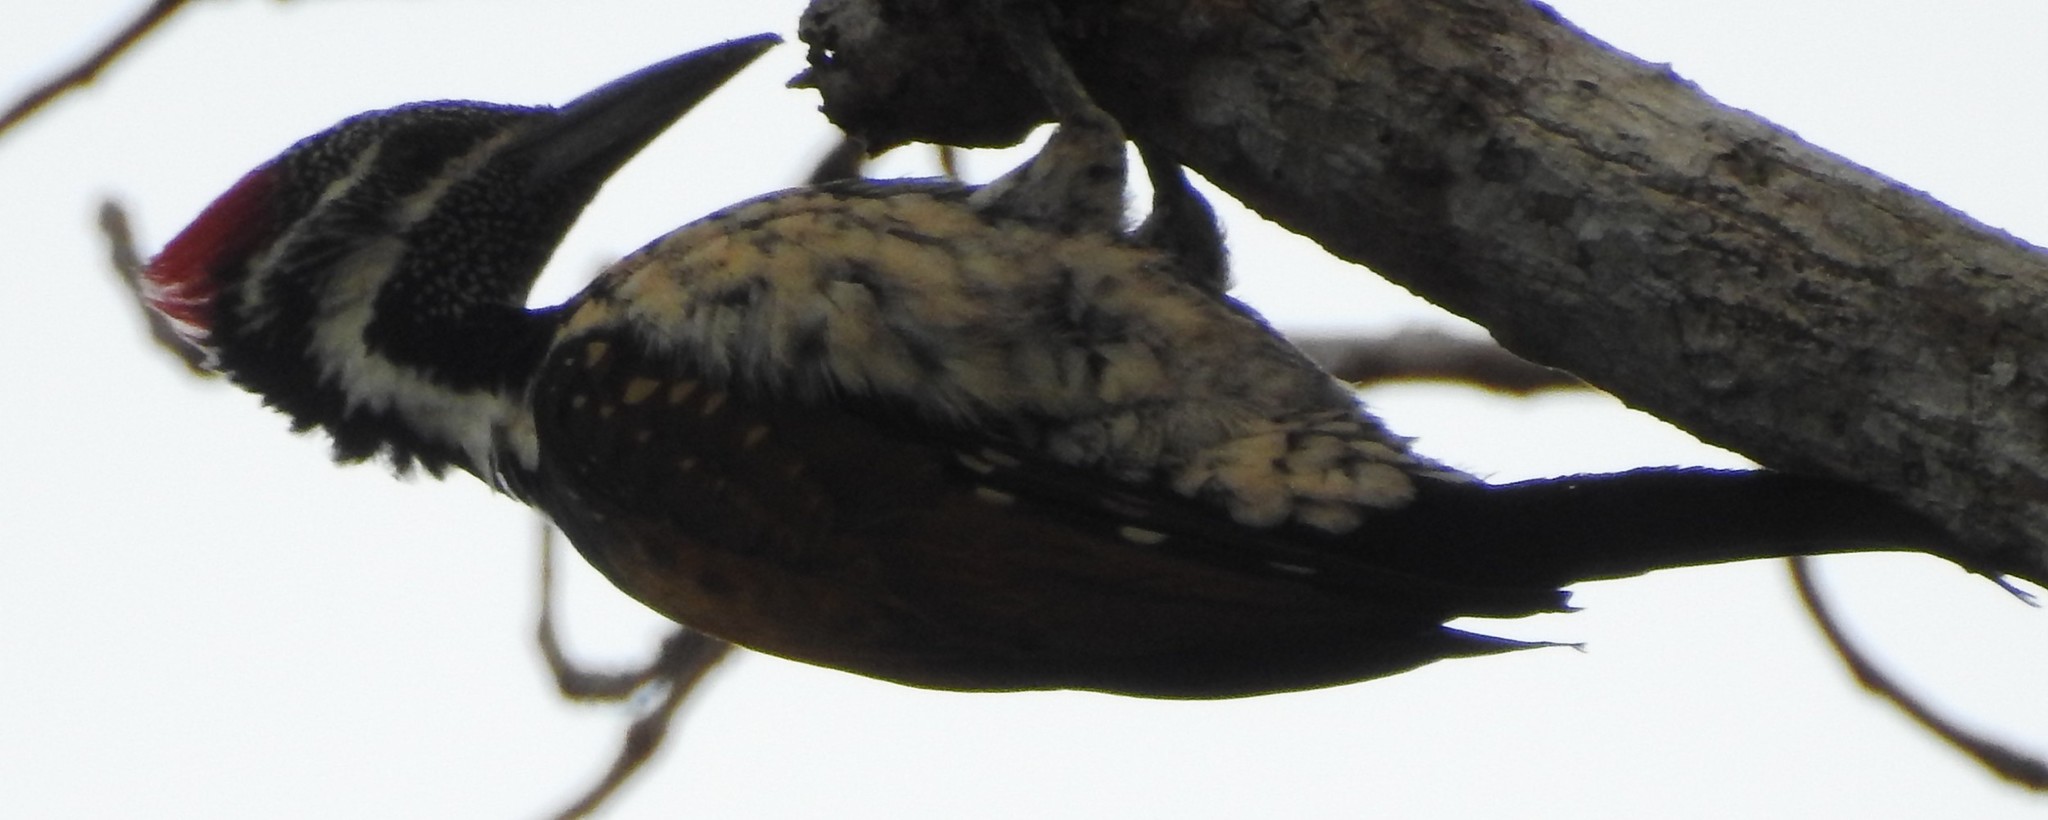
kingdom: Animalia
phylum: Chordata
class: Aves
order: Piciformes
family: Picidae
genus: Dinopium
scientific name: Dinopium benghalense
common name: Black-rumped flameback
